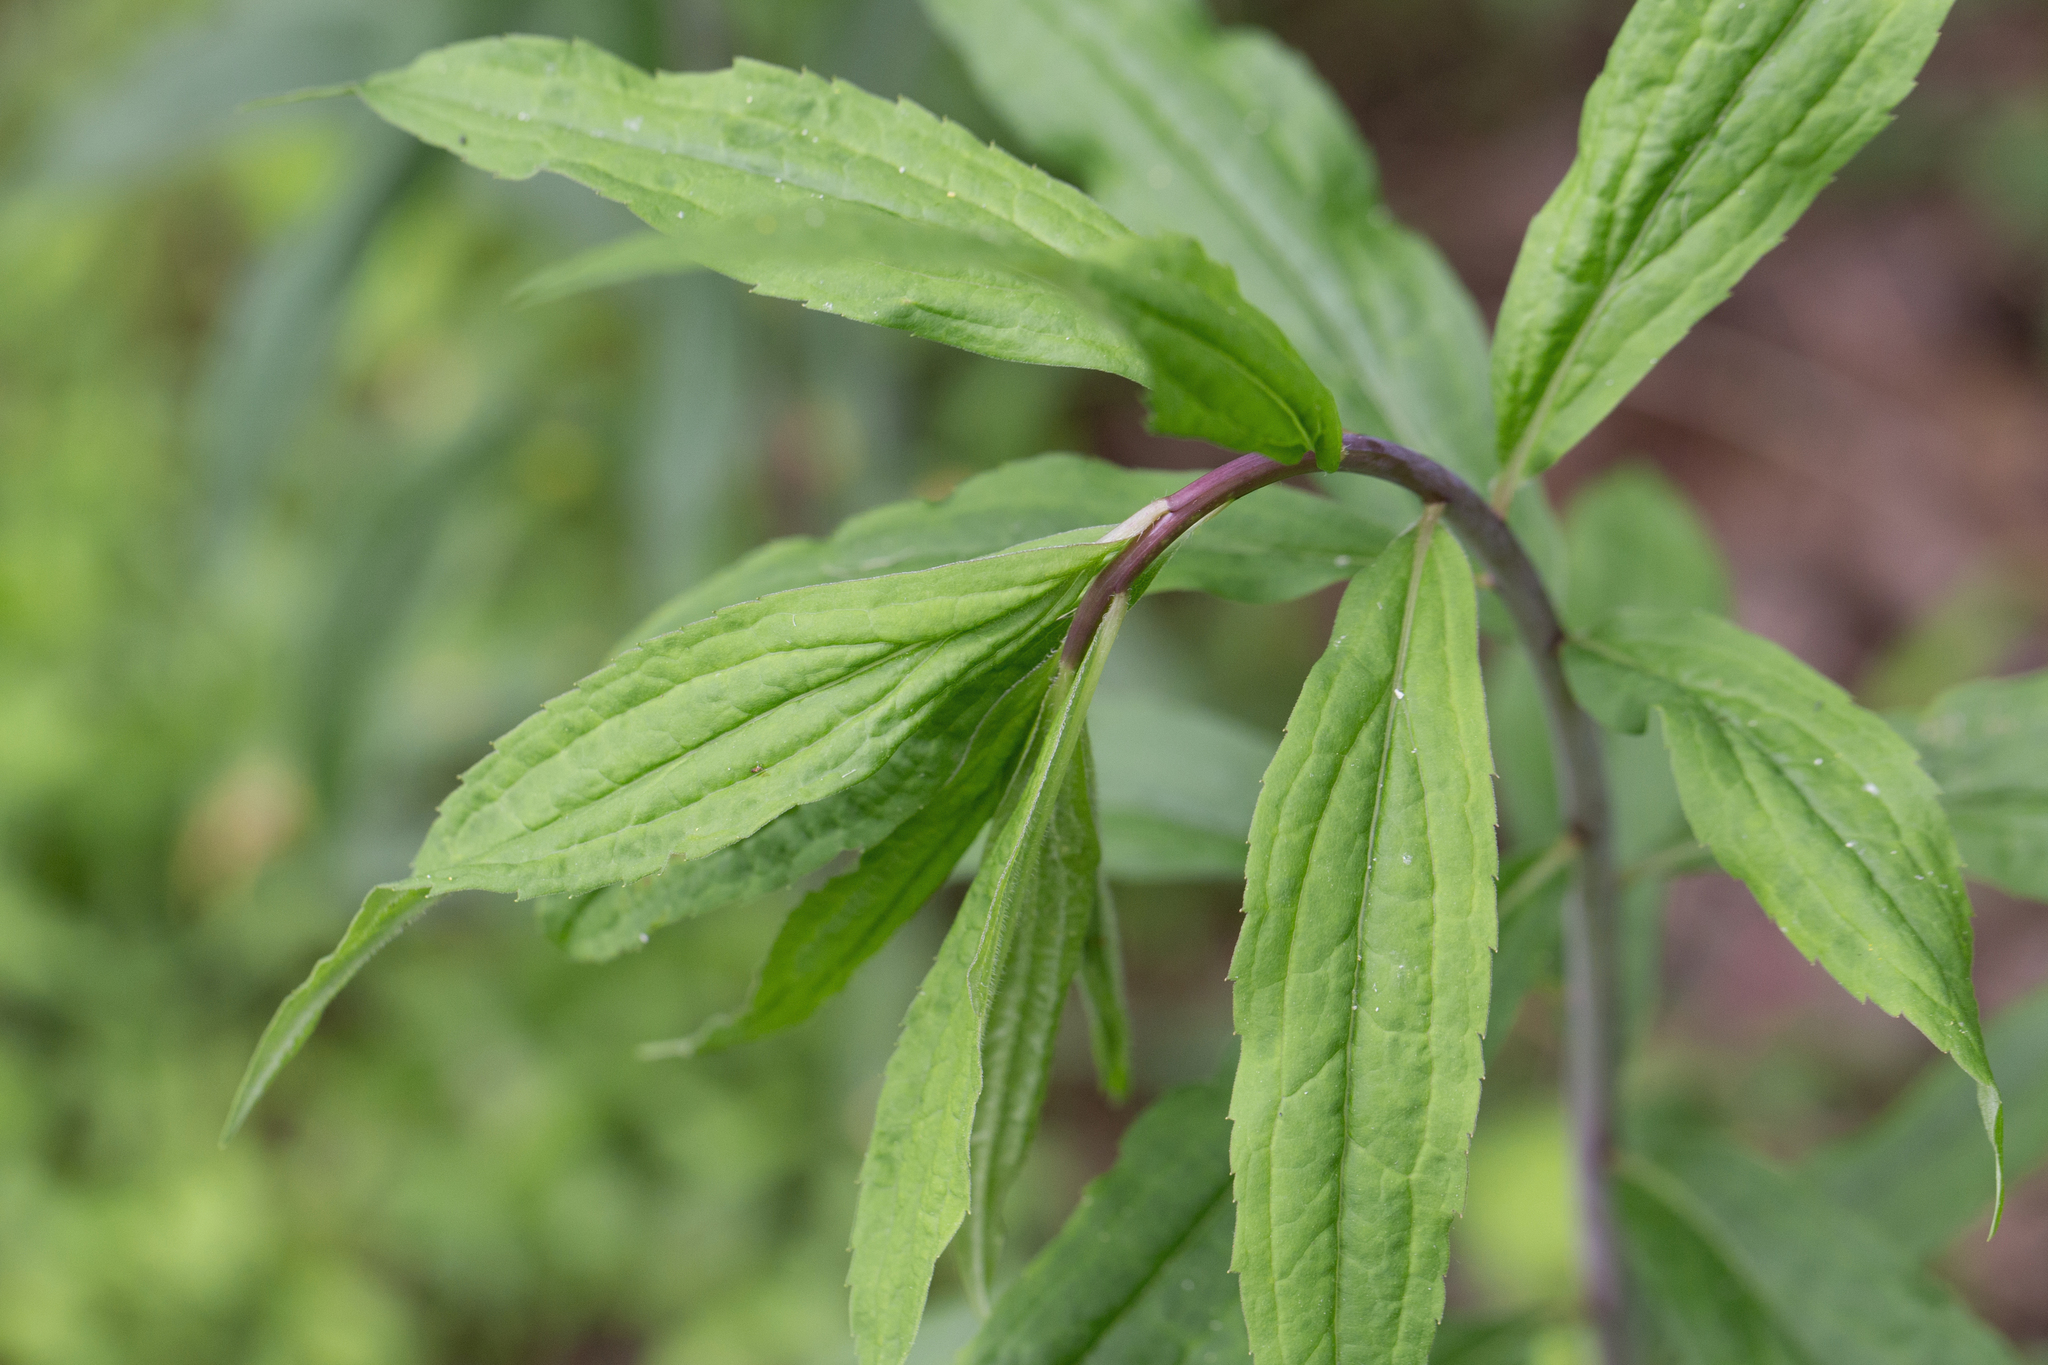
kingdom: Plantae
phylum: Tracheophyta
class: Magnoliopsida
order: Asterales
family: Asteraceae
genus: Solidago
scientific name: Solidago gigantea
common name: Giant goldenrod
